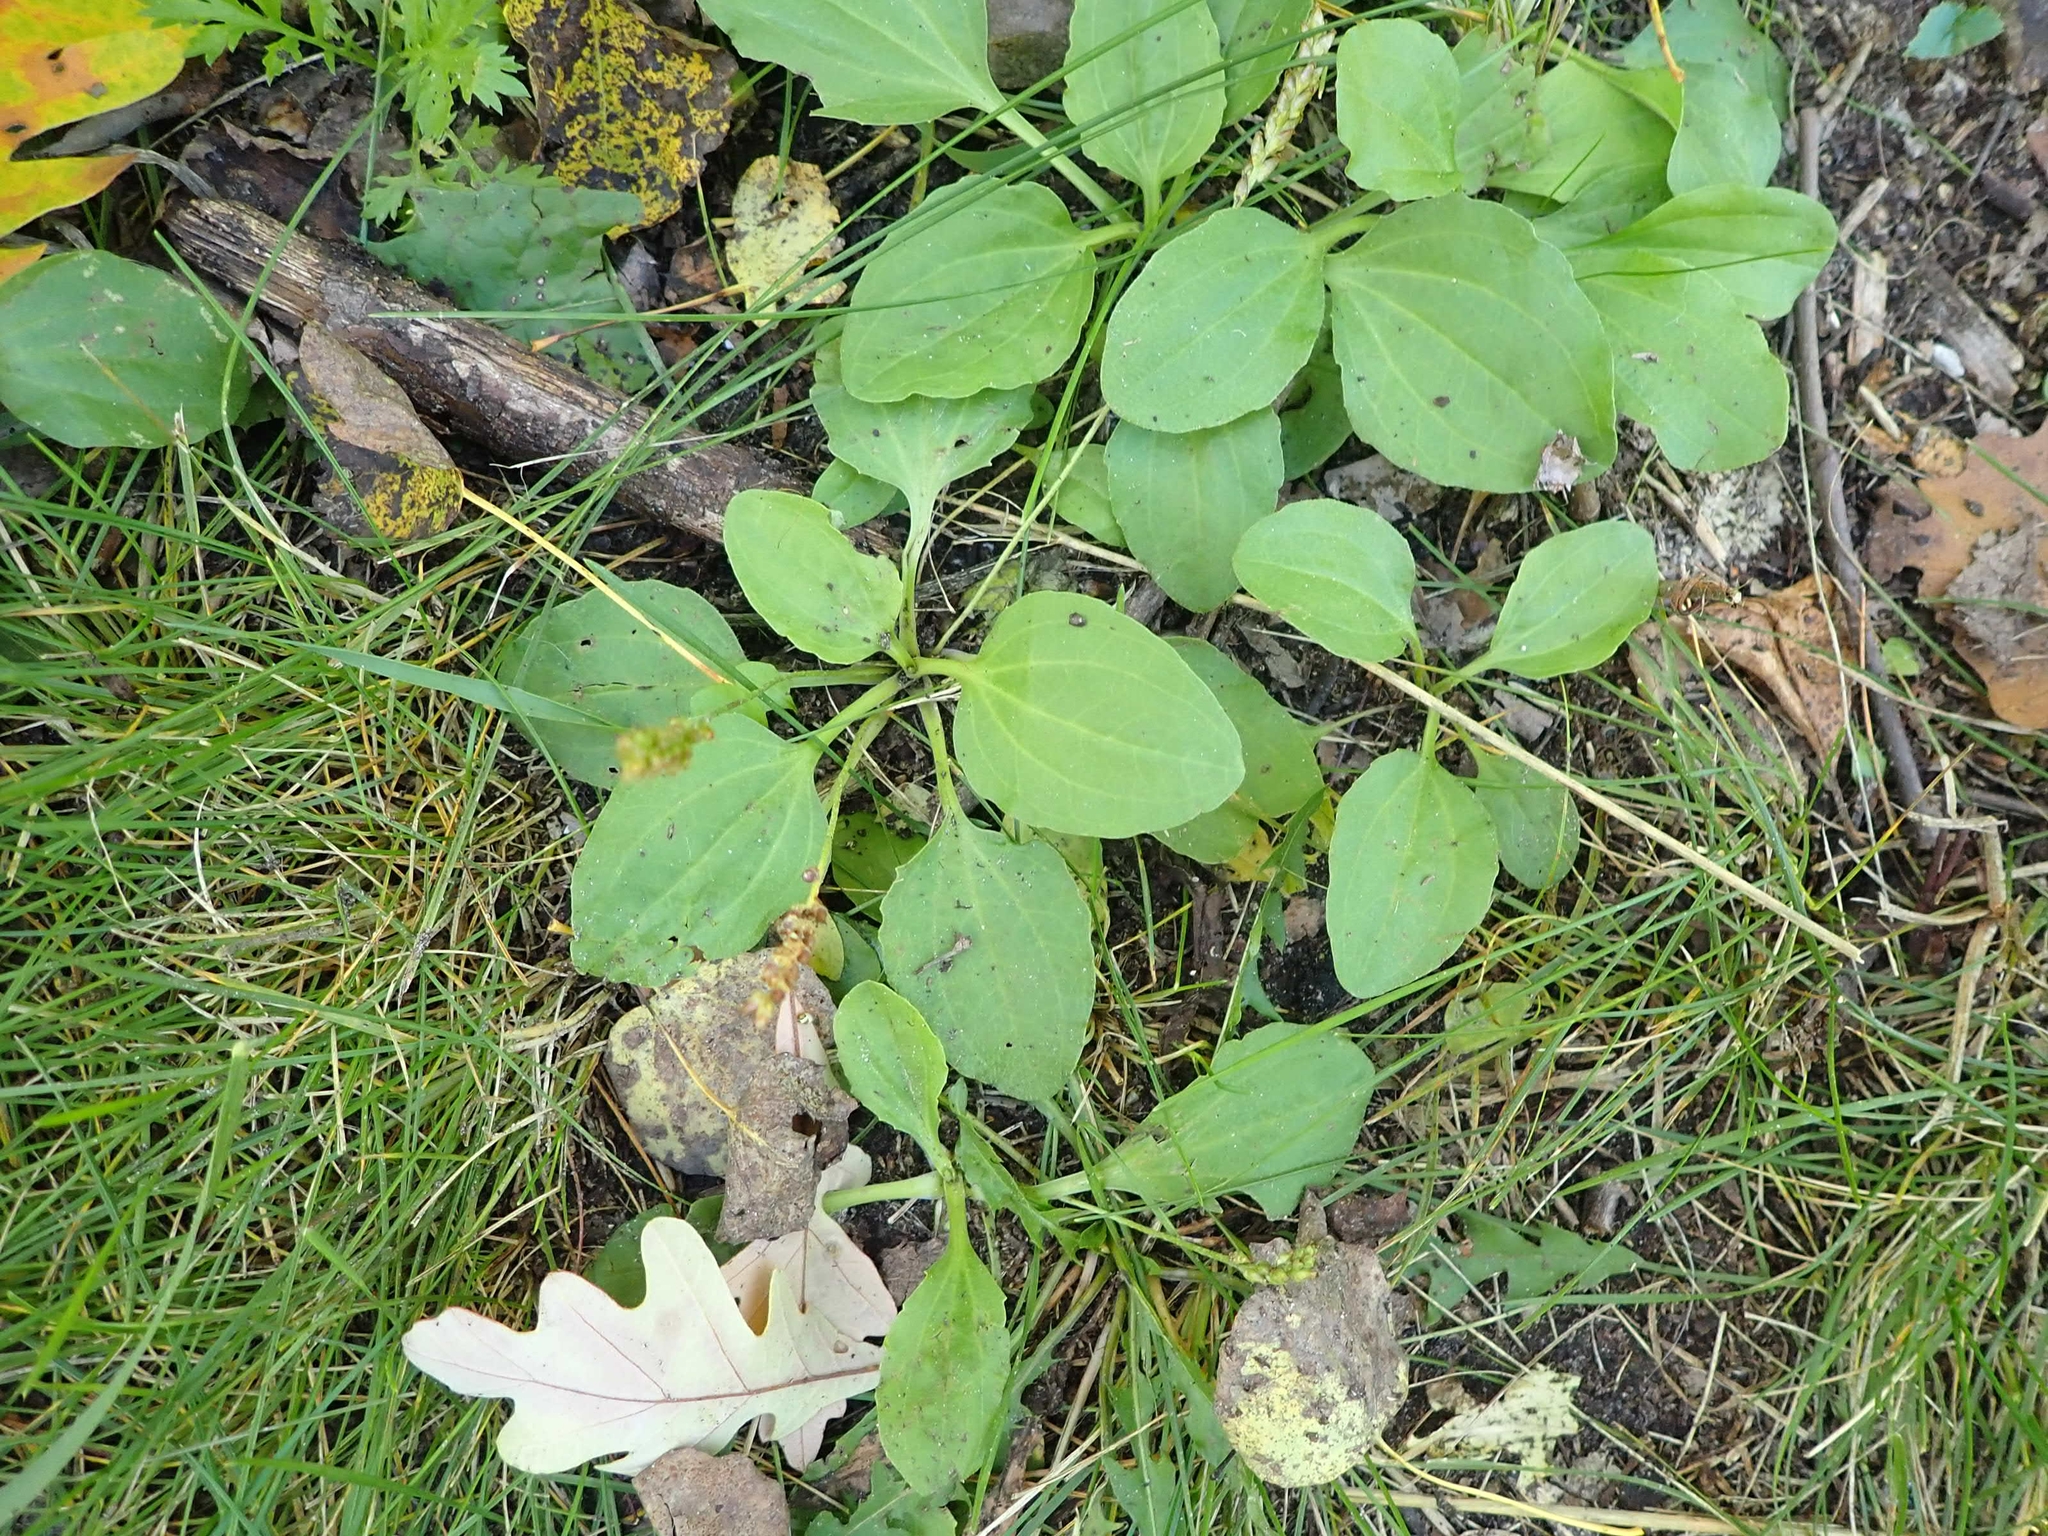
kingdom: Plantae
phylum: Tracheophyta
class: Magnoliopsida
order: Lamiales
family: Plantaginaceae
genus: Plantago
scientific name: Plantago major
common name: Common plantain
